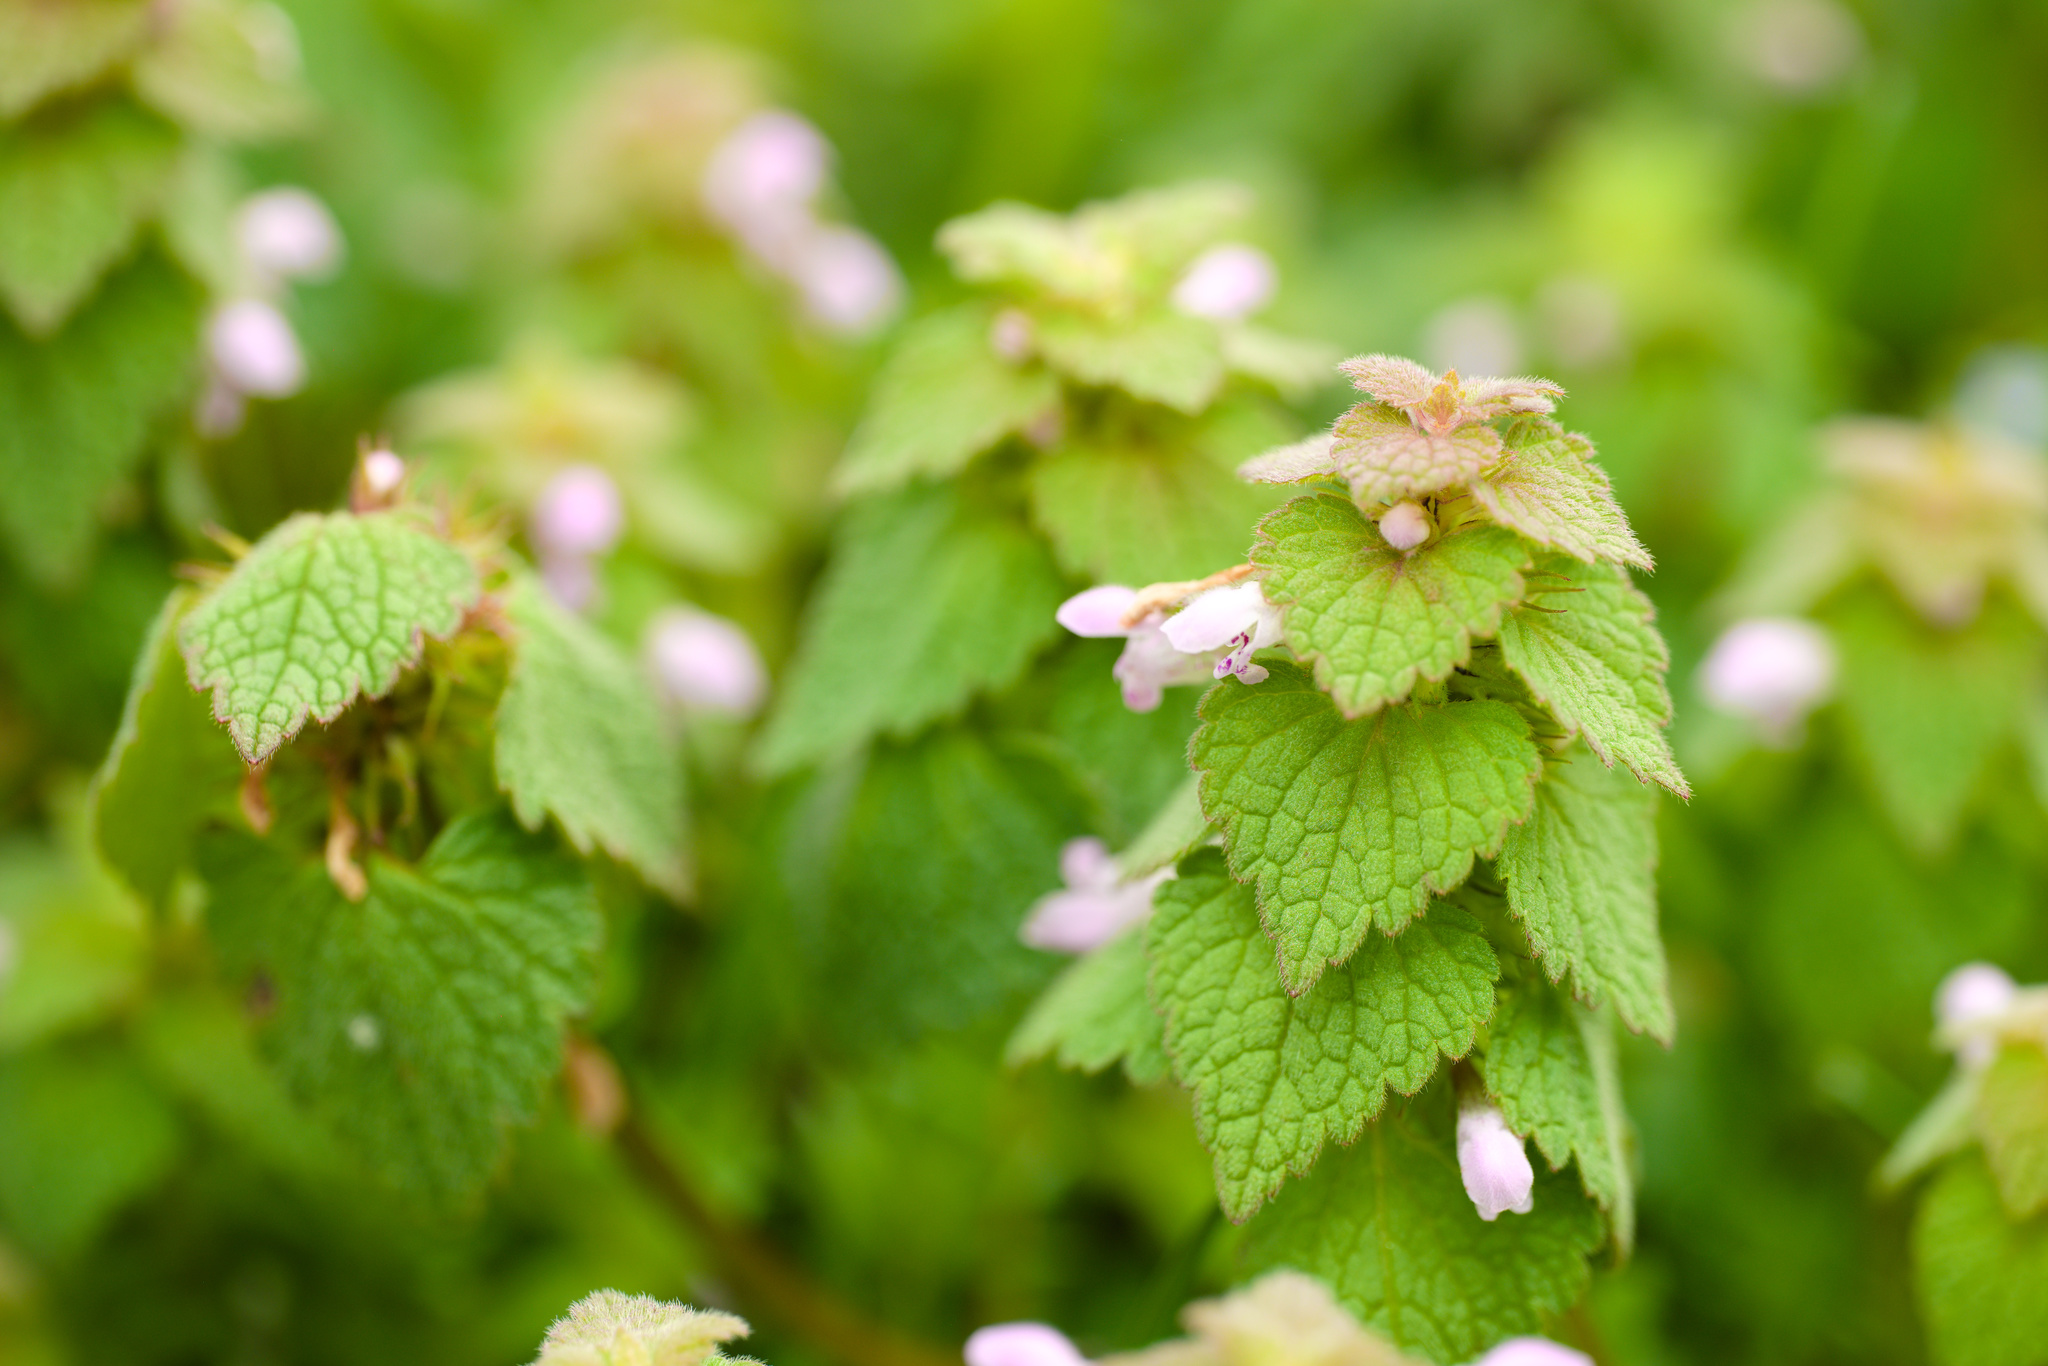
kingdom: Plantae
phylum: Tracheophyta
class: Magnoliopsida
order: Lamiales
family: Lamiaceae
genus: Lamium
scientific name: Lamium purpureum
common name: Red dead-nettle
